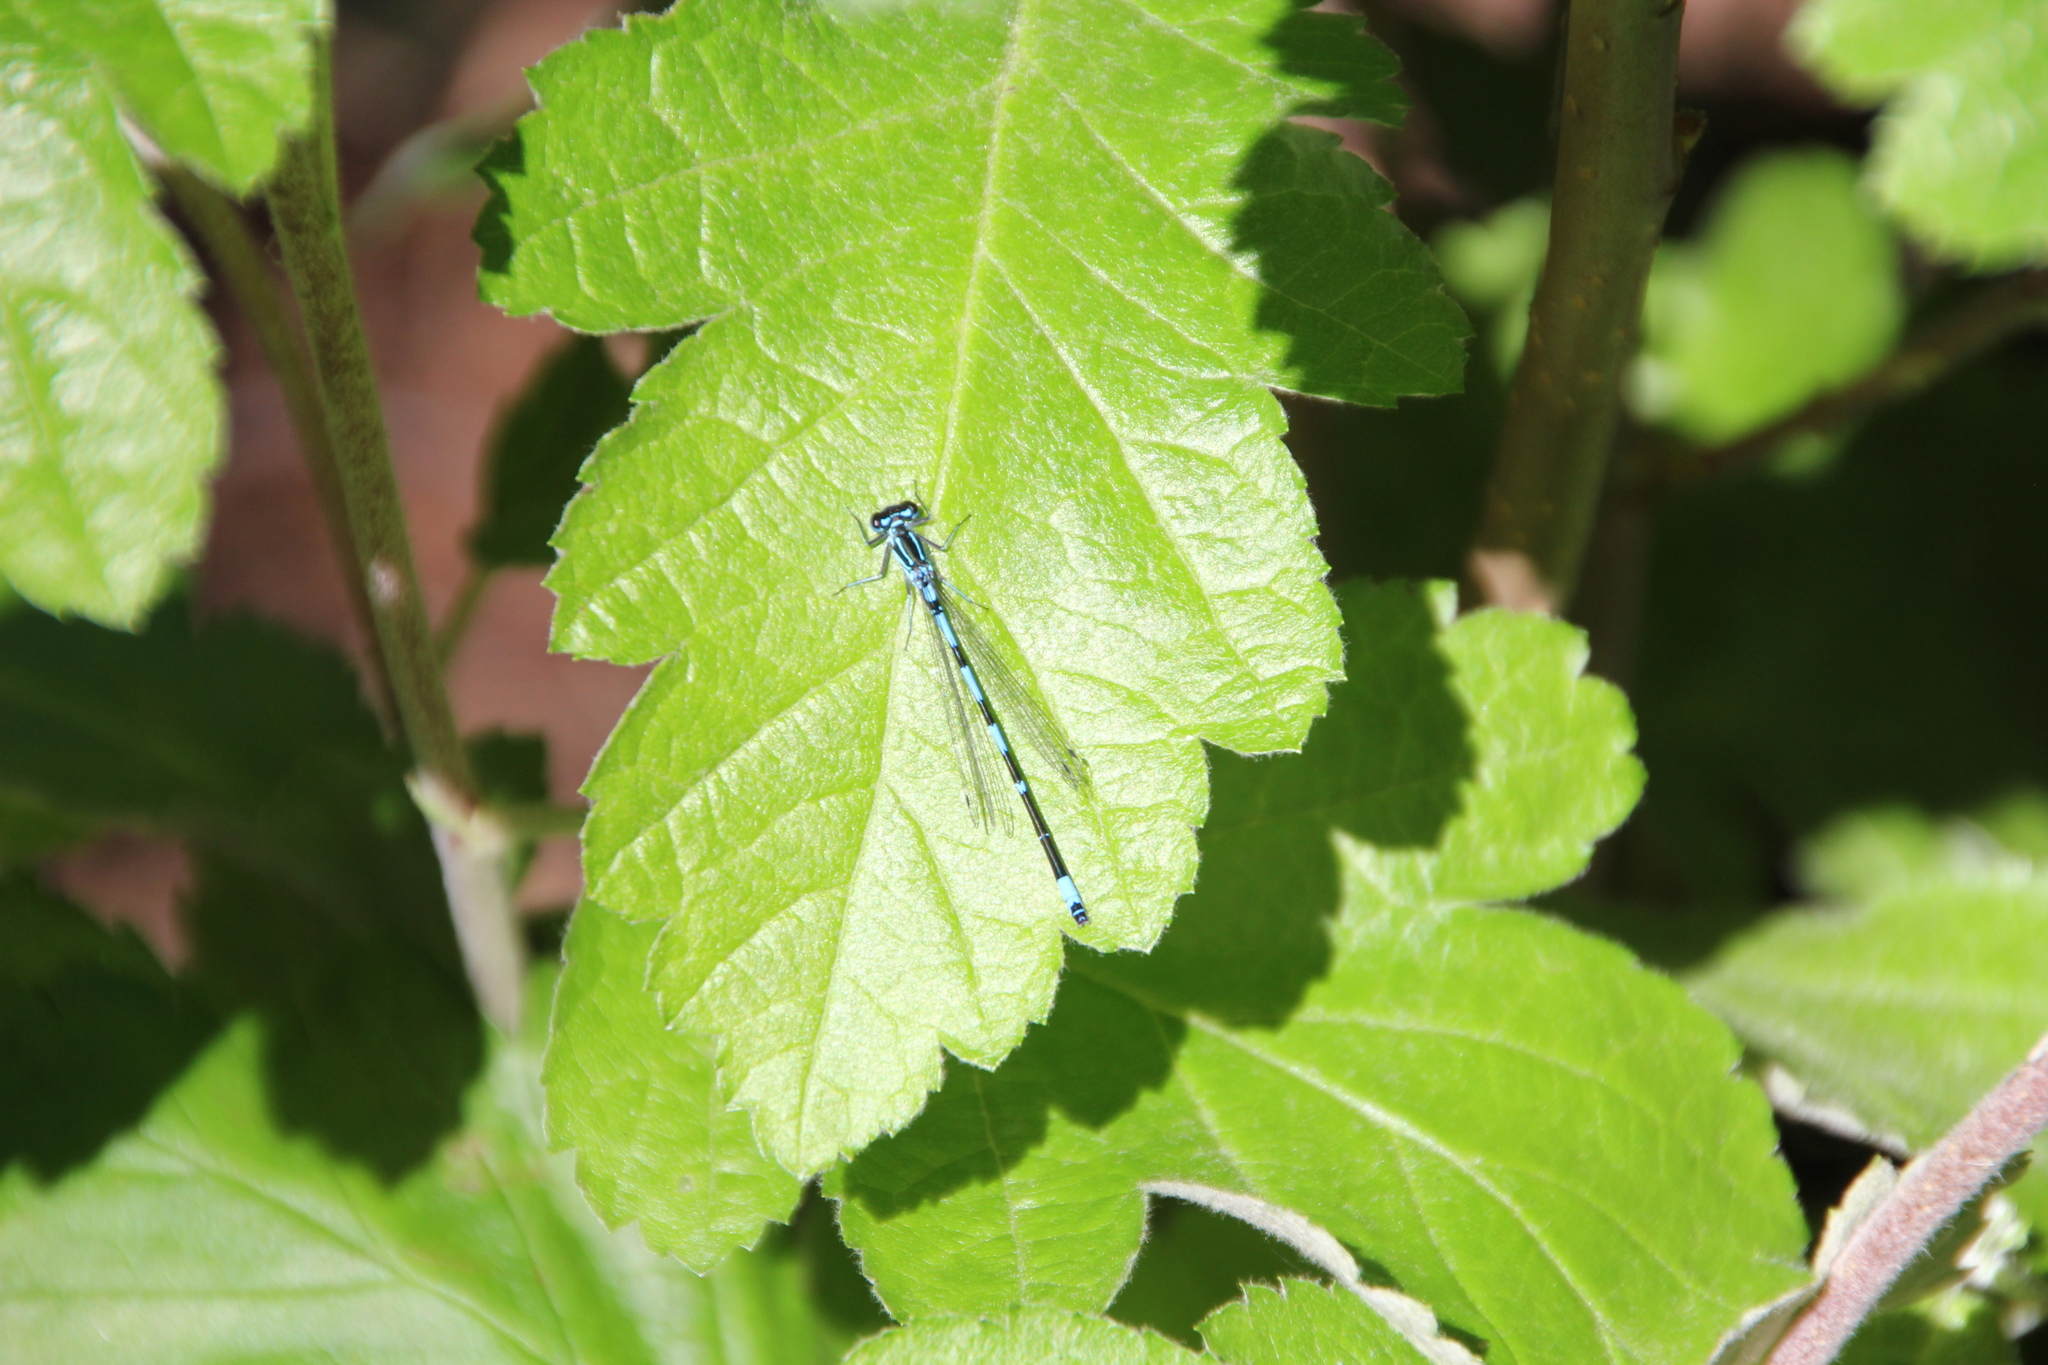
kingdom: Animalia
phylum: Arthropoda
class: Insecta
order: Odonata
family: Coenagrionidae
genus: Coenagrion
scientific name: Coenagrion pulchellum
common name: Variable bluet
